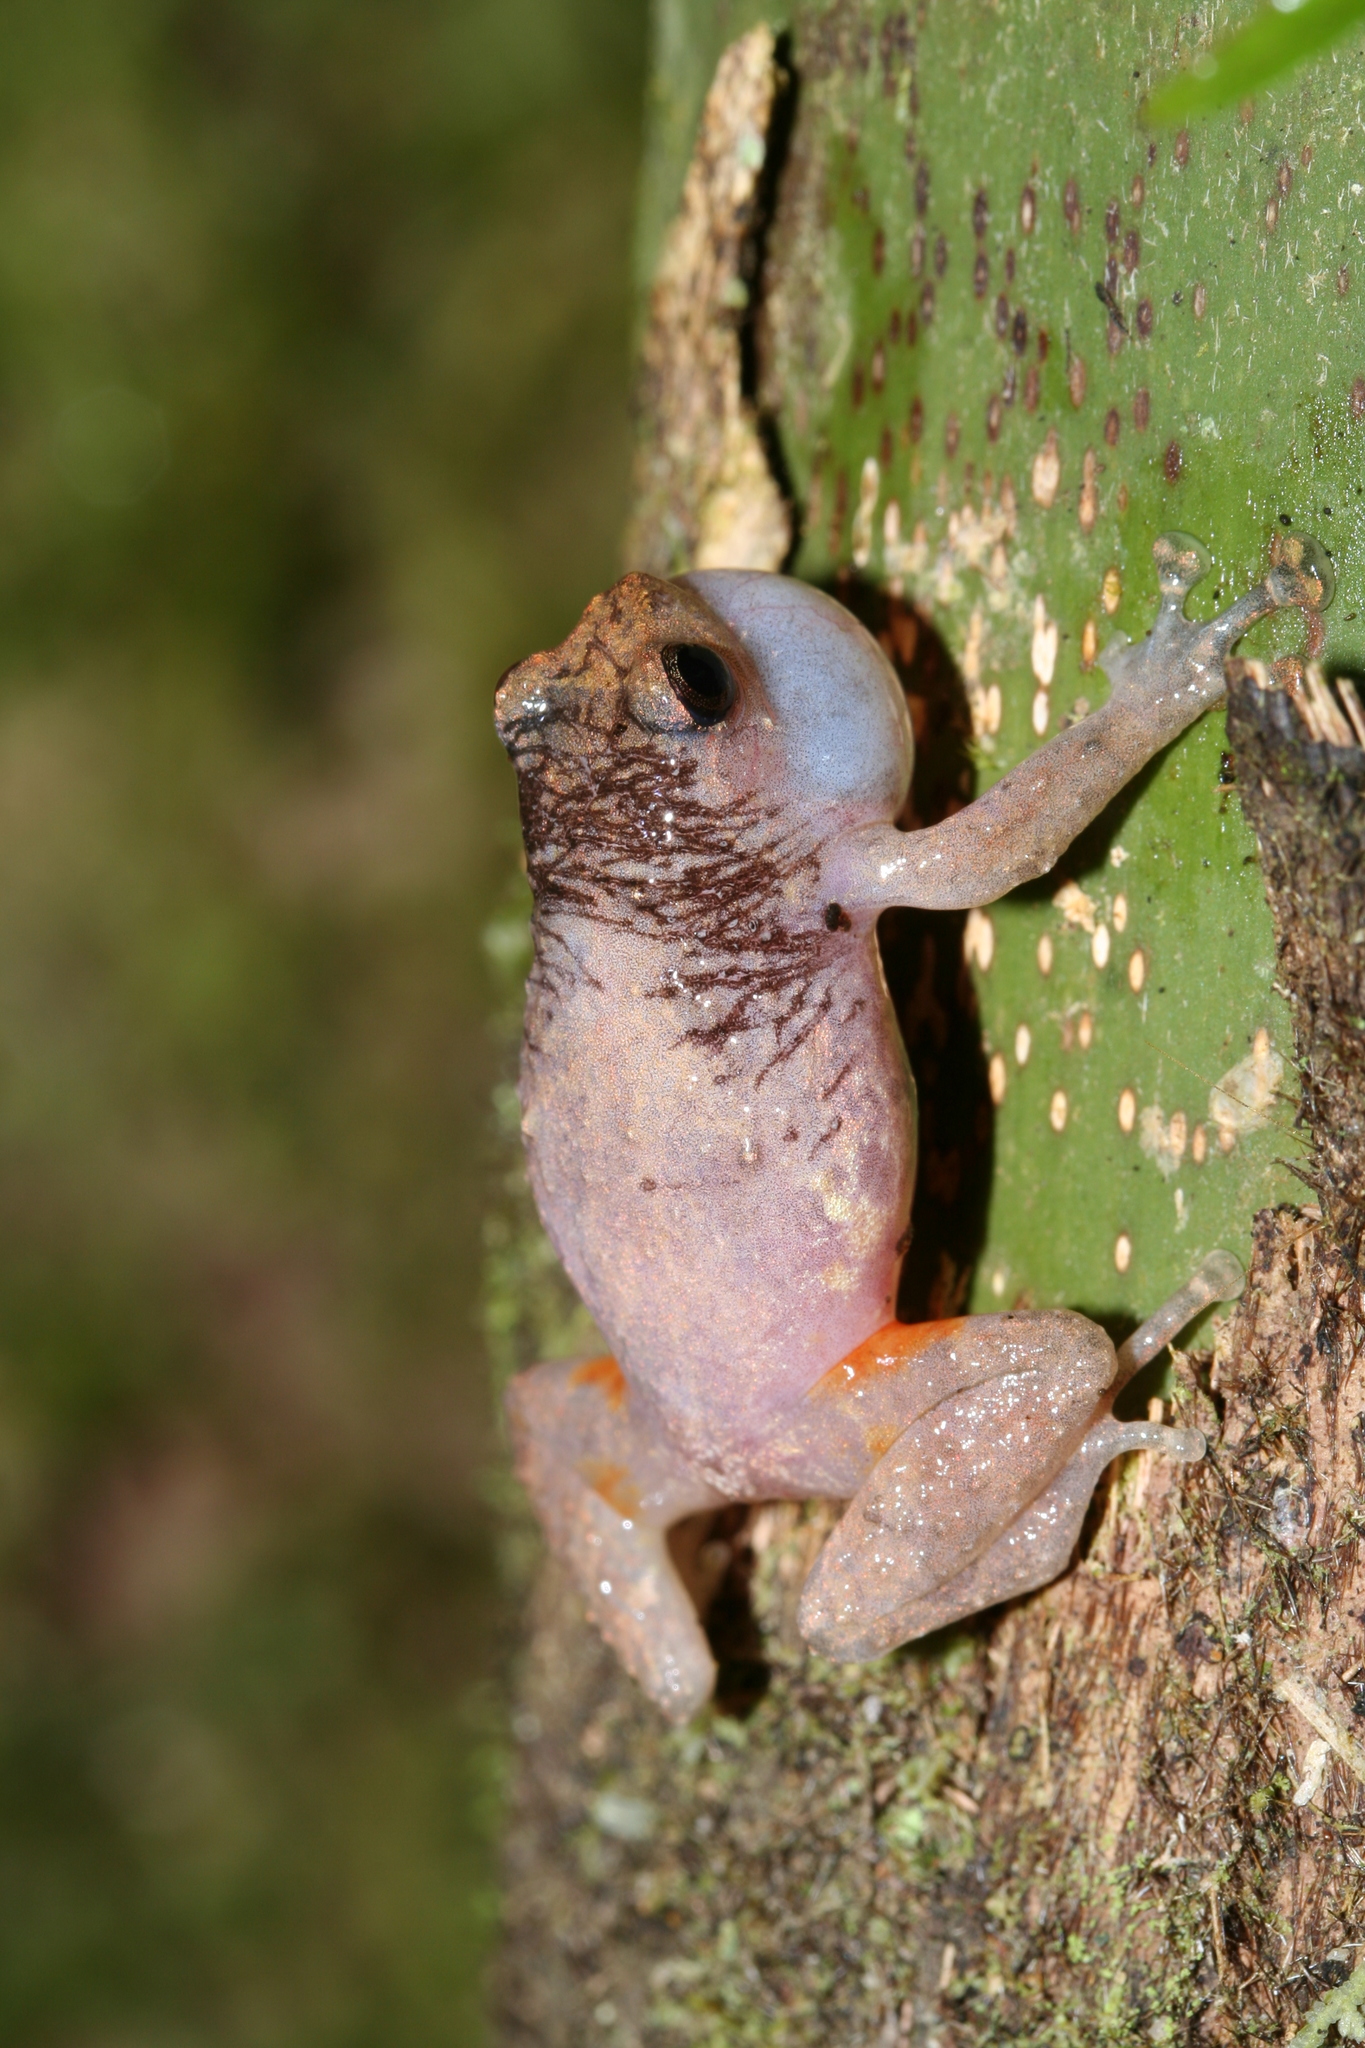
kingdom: Animalia
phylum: Chordata
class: Amphibia
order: Anura
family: Microhylidae
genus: Anodonthyla
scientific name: Anodonthyla boulengerii
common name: Boulenger's climbing frog
